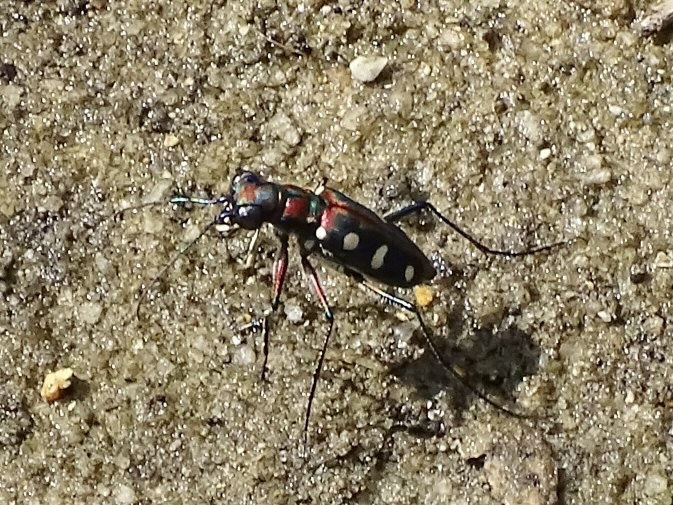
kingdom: Animalia
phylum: Arthropoda
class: Insecta
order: Coleoptera
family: Carabidae
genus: Cicindela
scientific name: Cicindela juxtata
